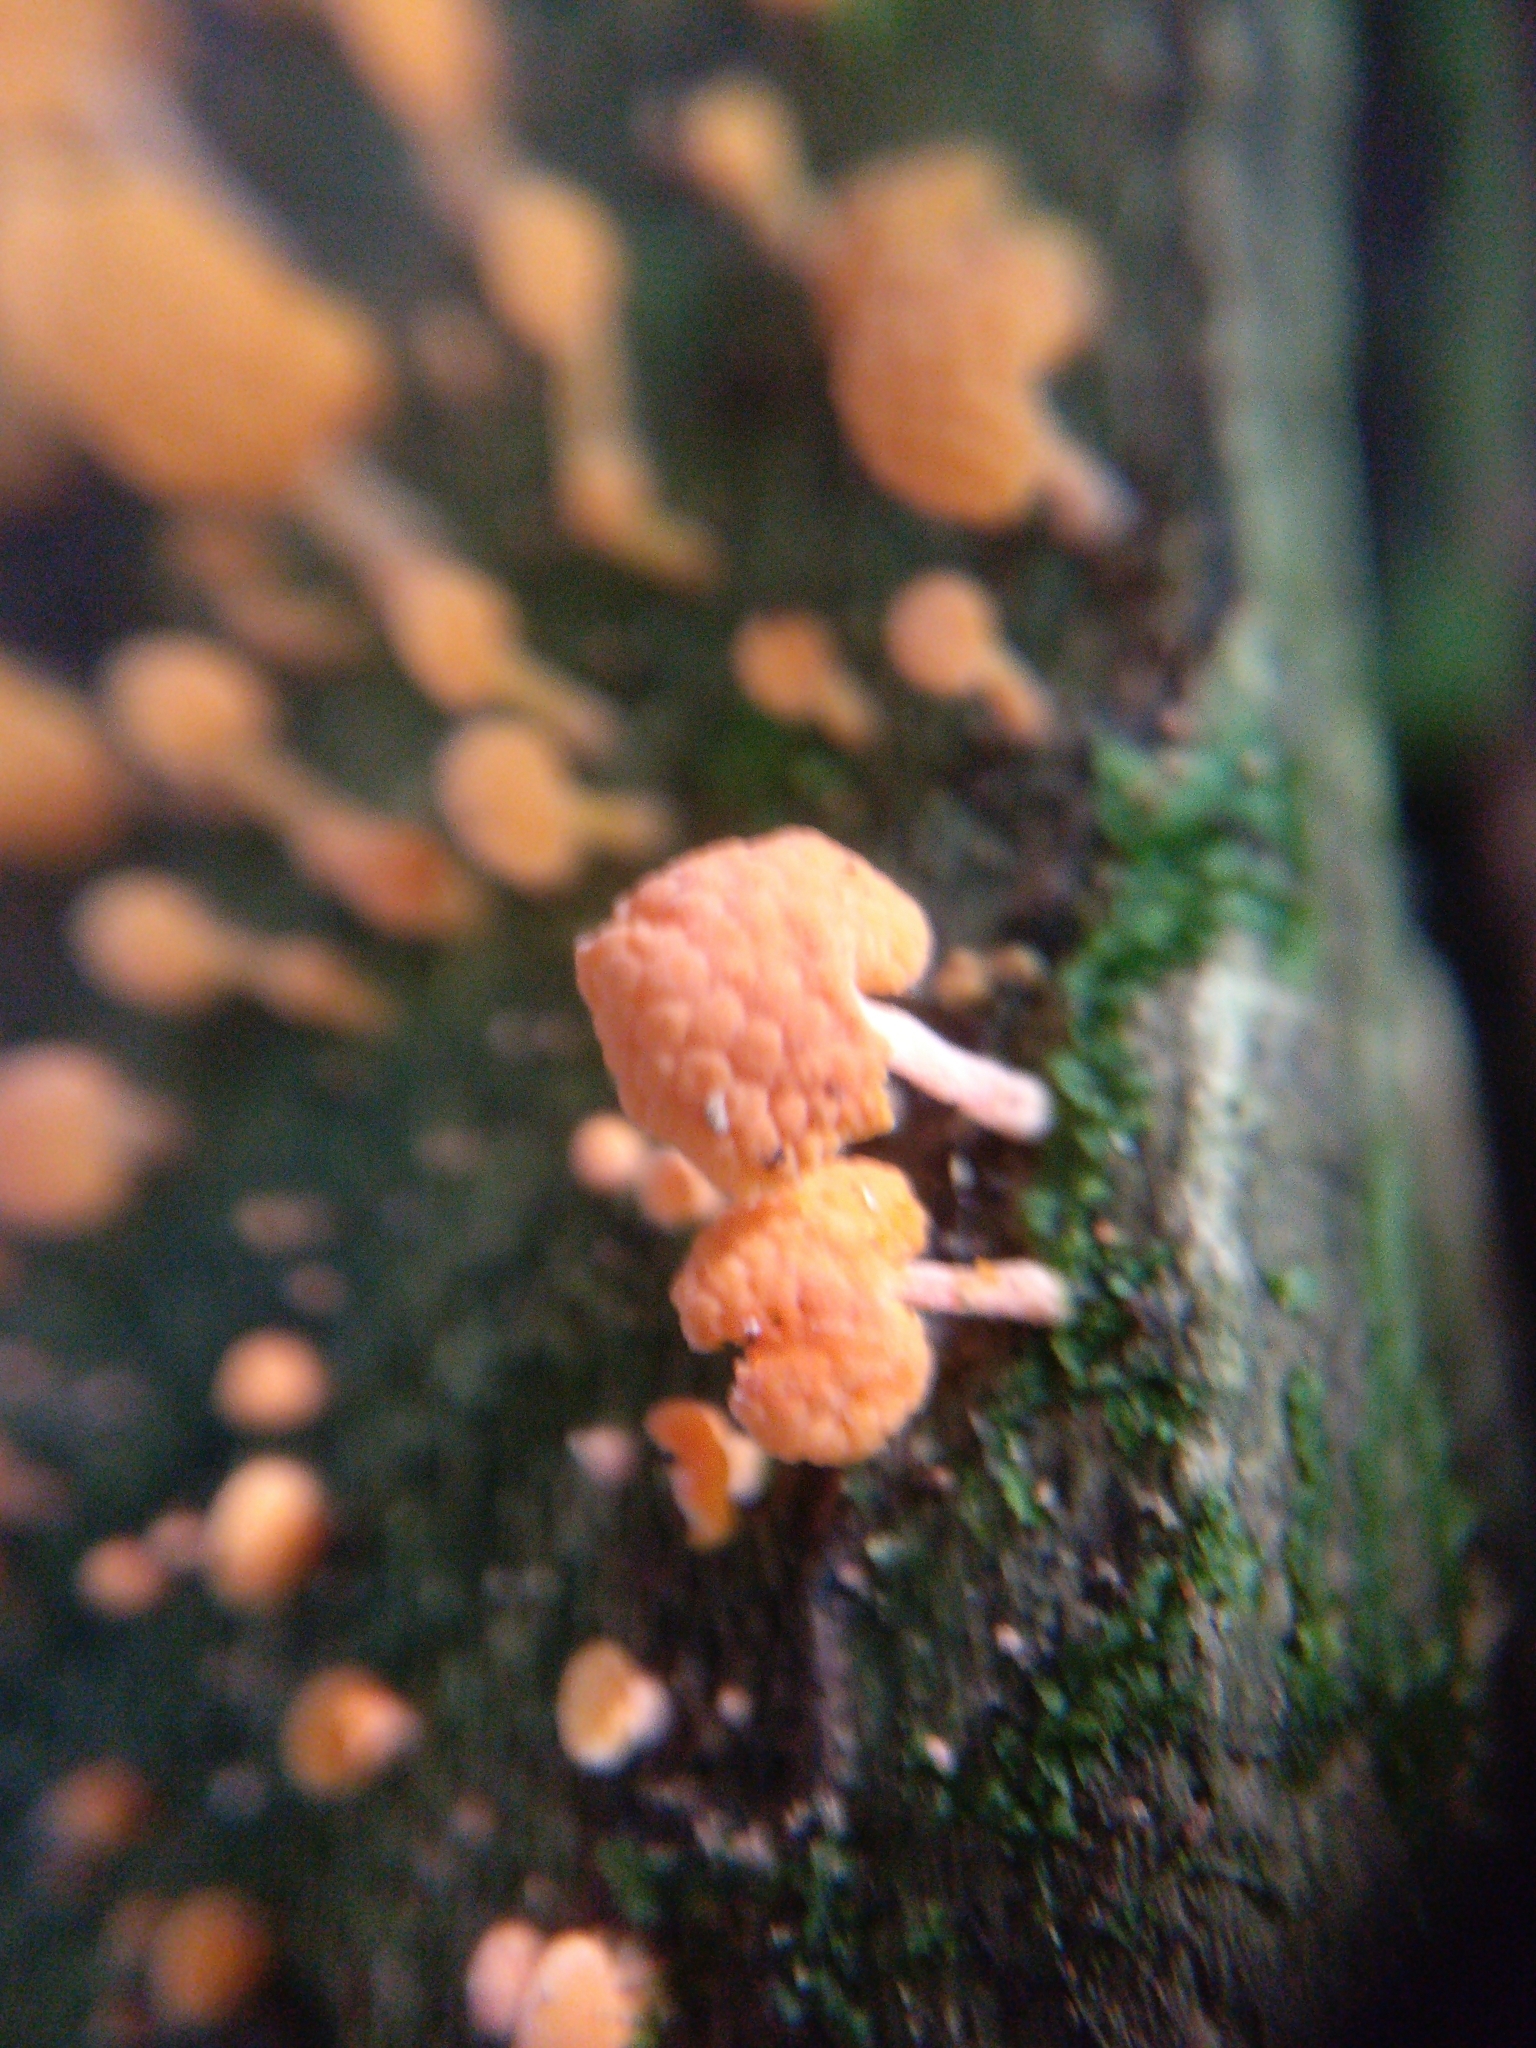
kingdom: Fungi
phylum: Basidiomycota
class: Agaricomycetes
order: Agaricales
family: Mycenaceae
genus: Favolaschia
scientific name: Favolaschia claudopus
